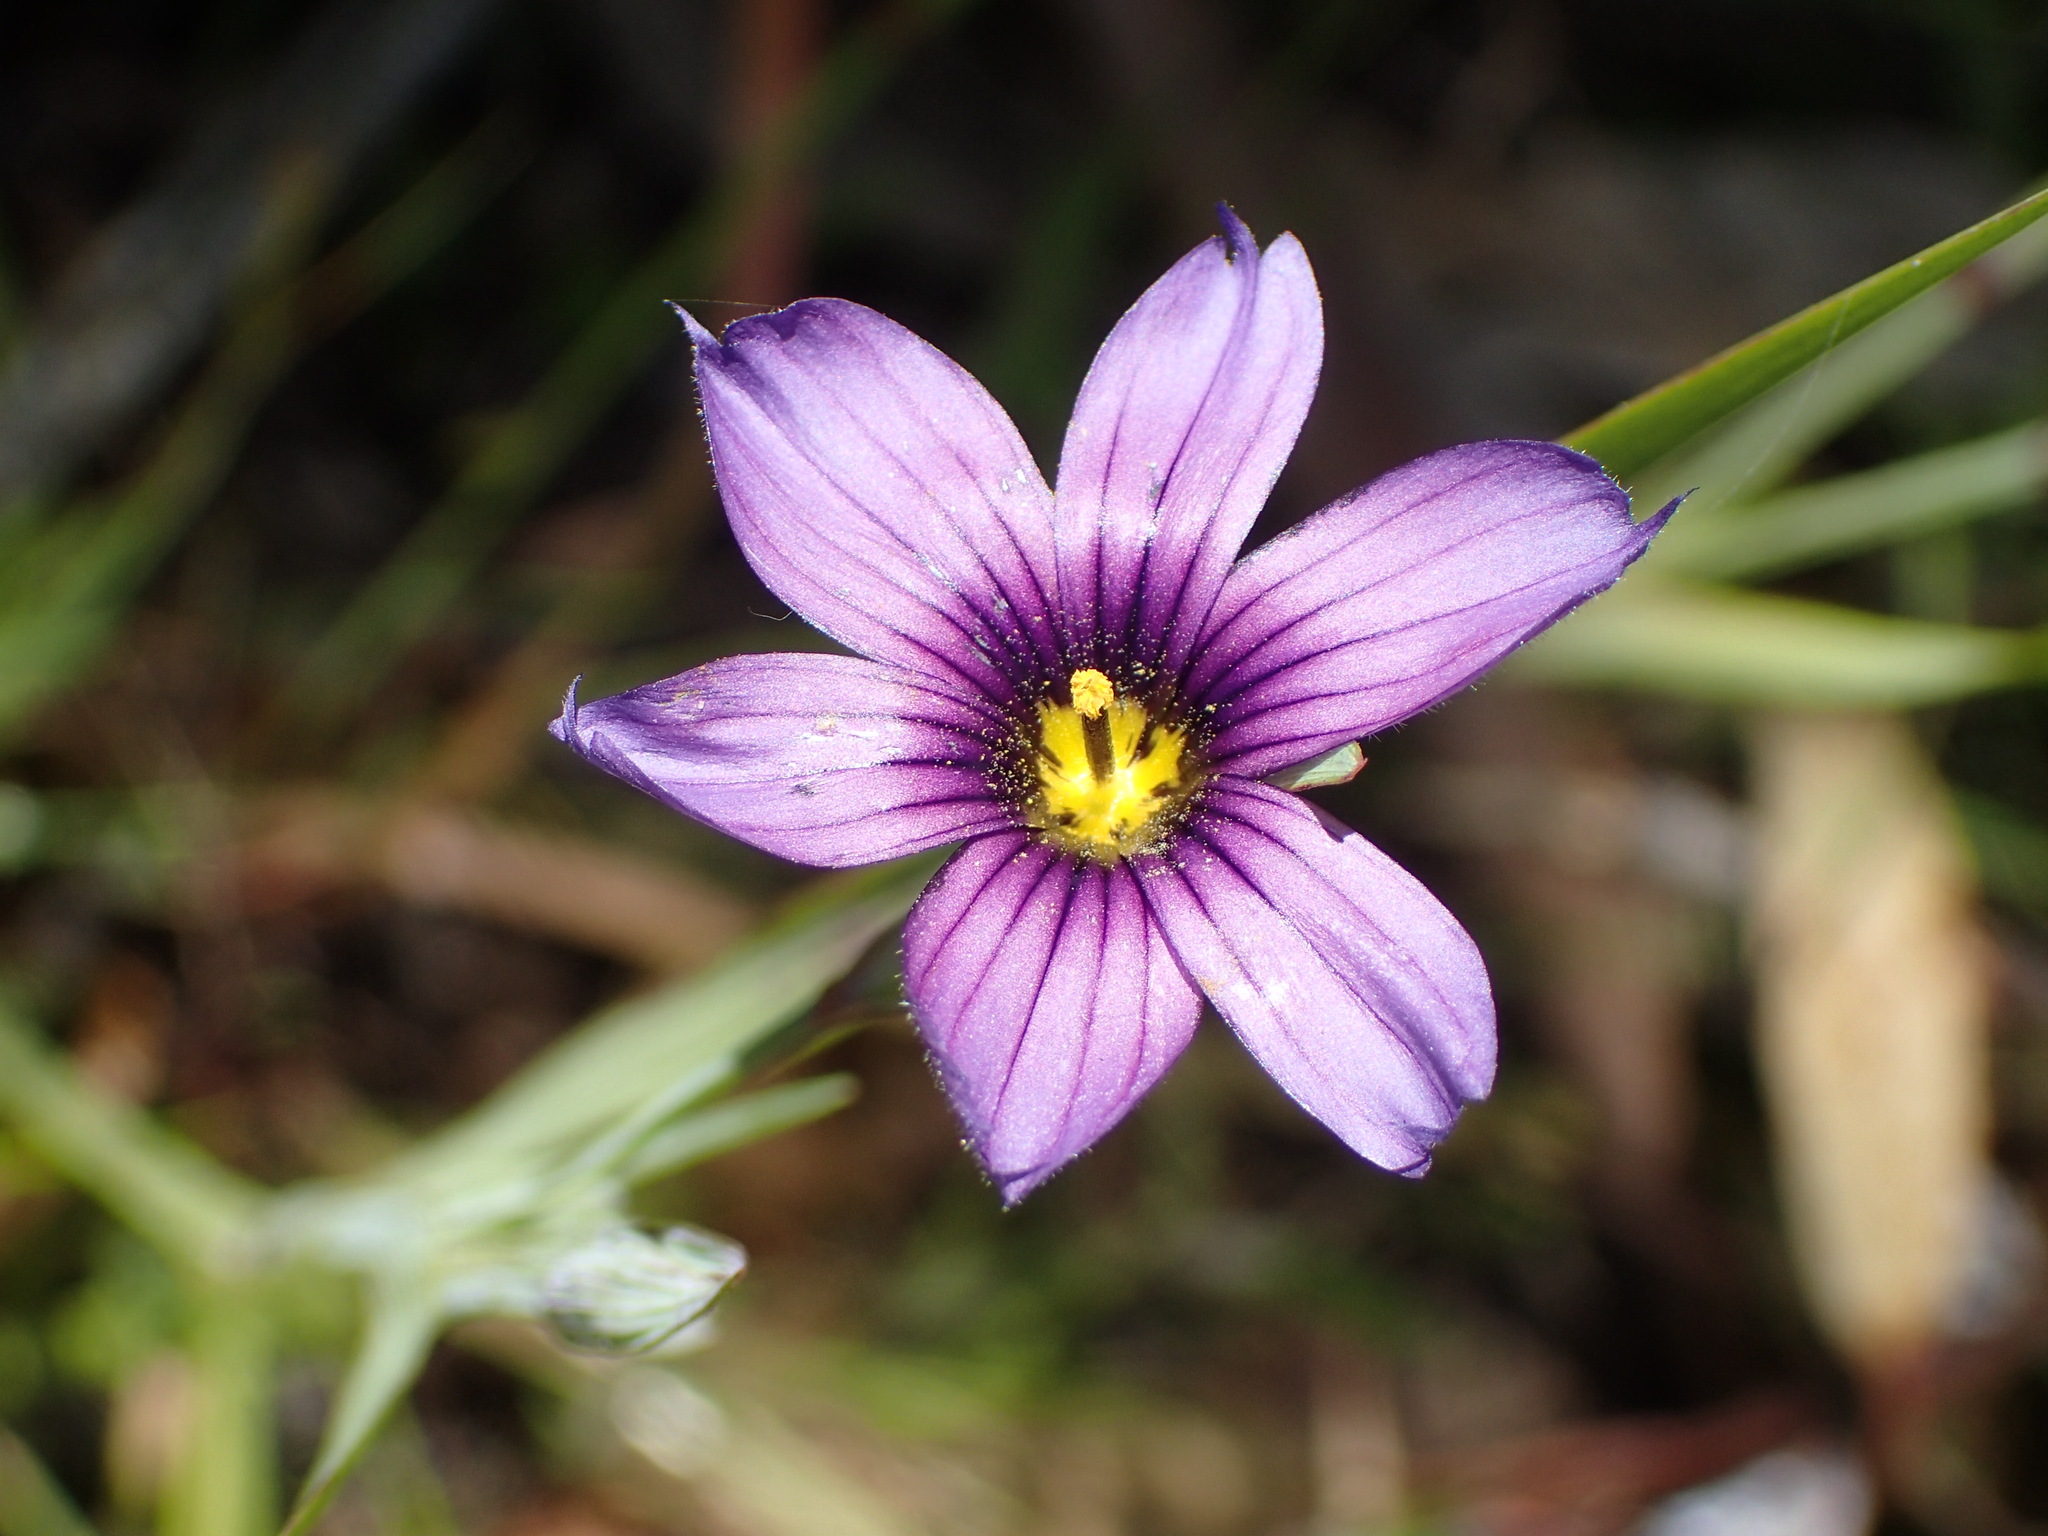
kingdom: Plantae
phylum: Tracheophyta
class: Liliopsida
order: Asparagales
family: Iridaceae
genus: Sisyrinchium
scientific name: Sisyrinchium bellum
